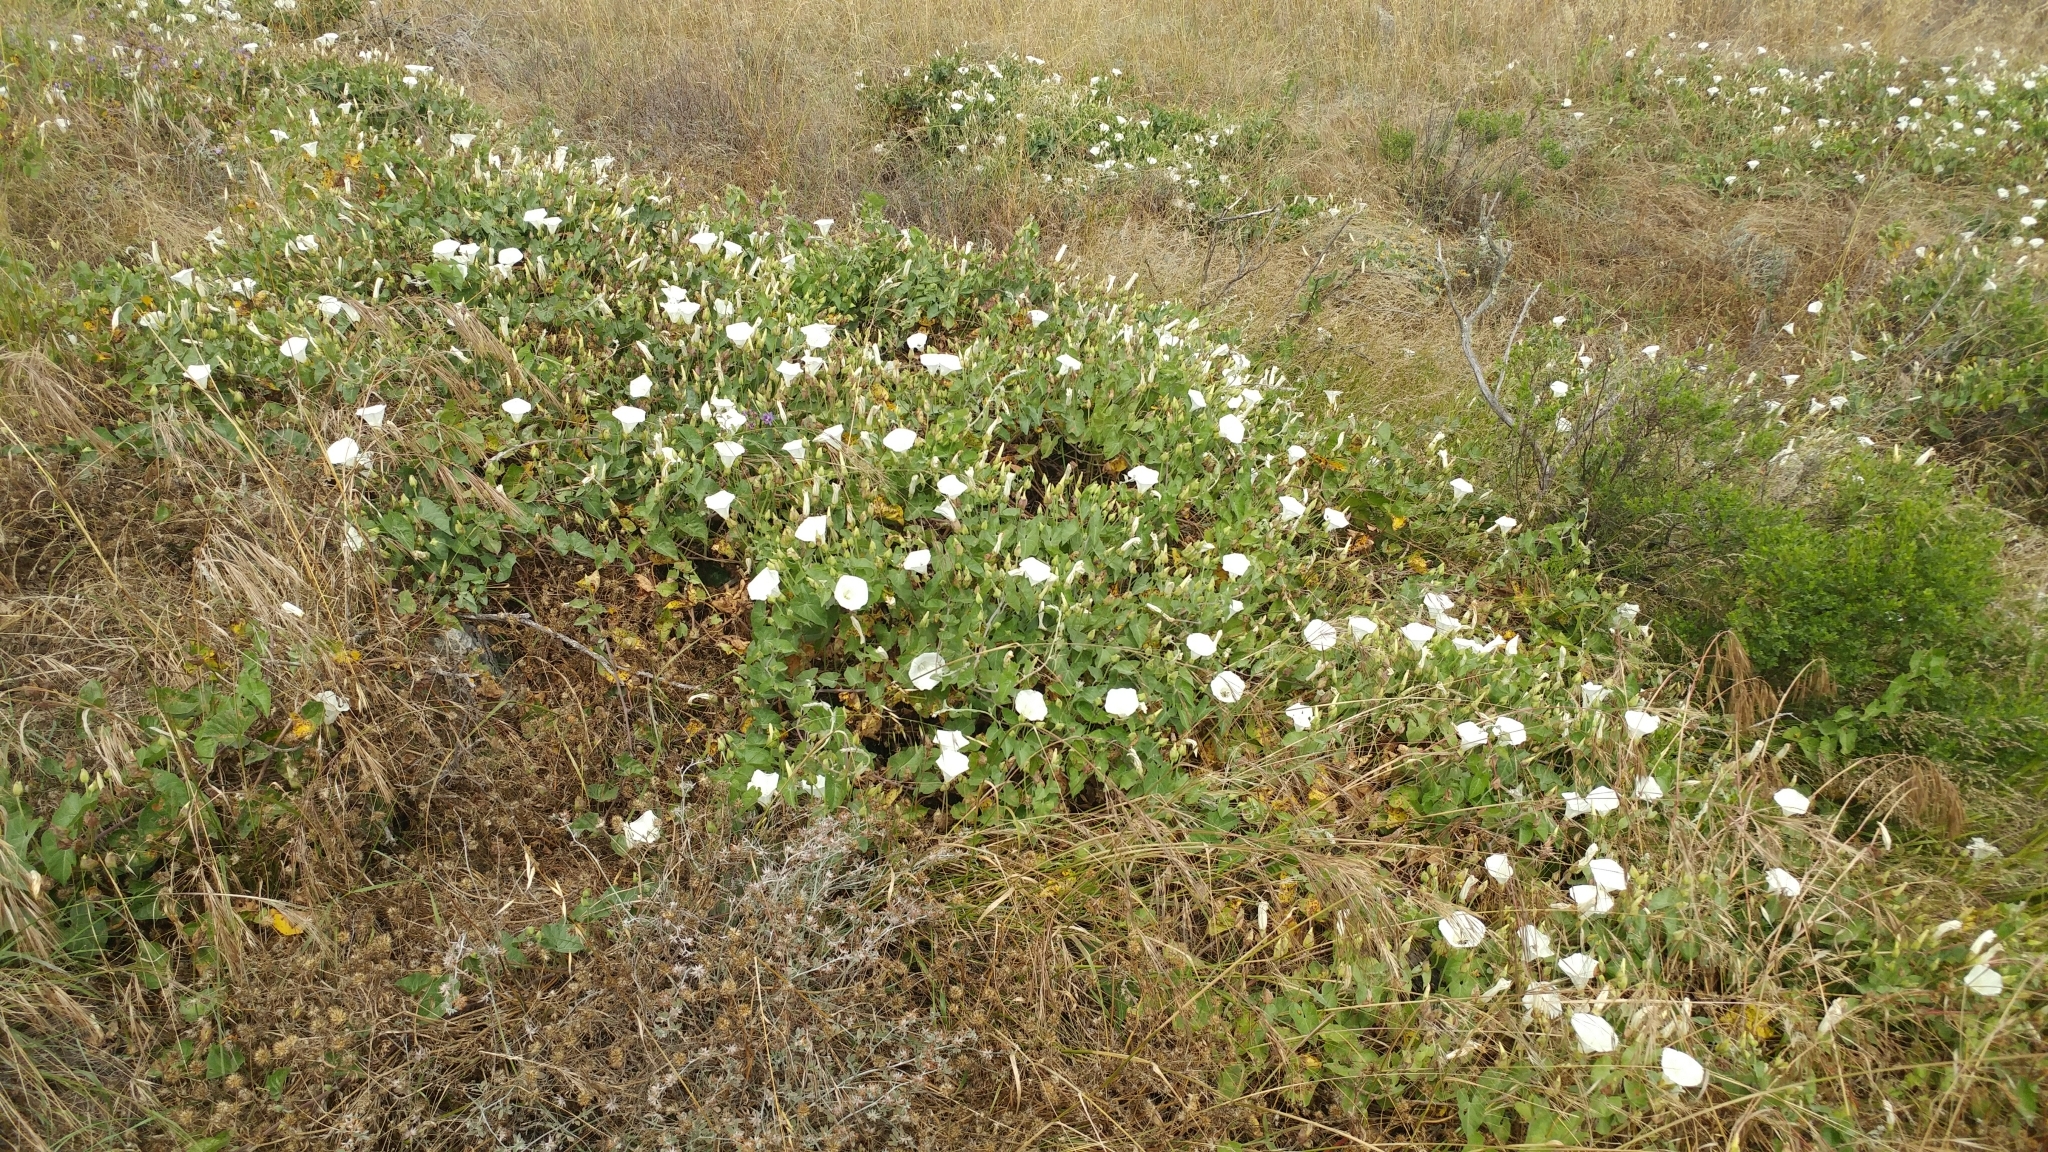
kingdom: Plantae
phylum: Tracheophyta
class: Magnoliopsida
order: Solanales
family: Convolvulaceae
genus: Calystegia
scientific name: Calystegia macrostegia
